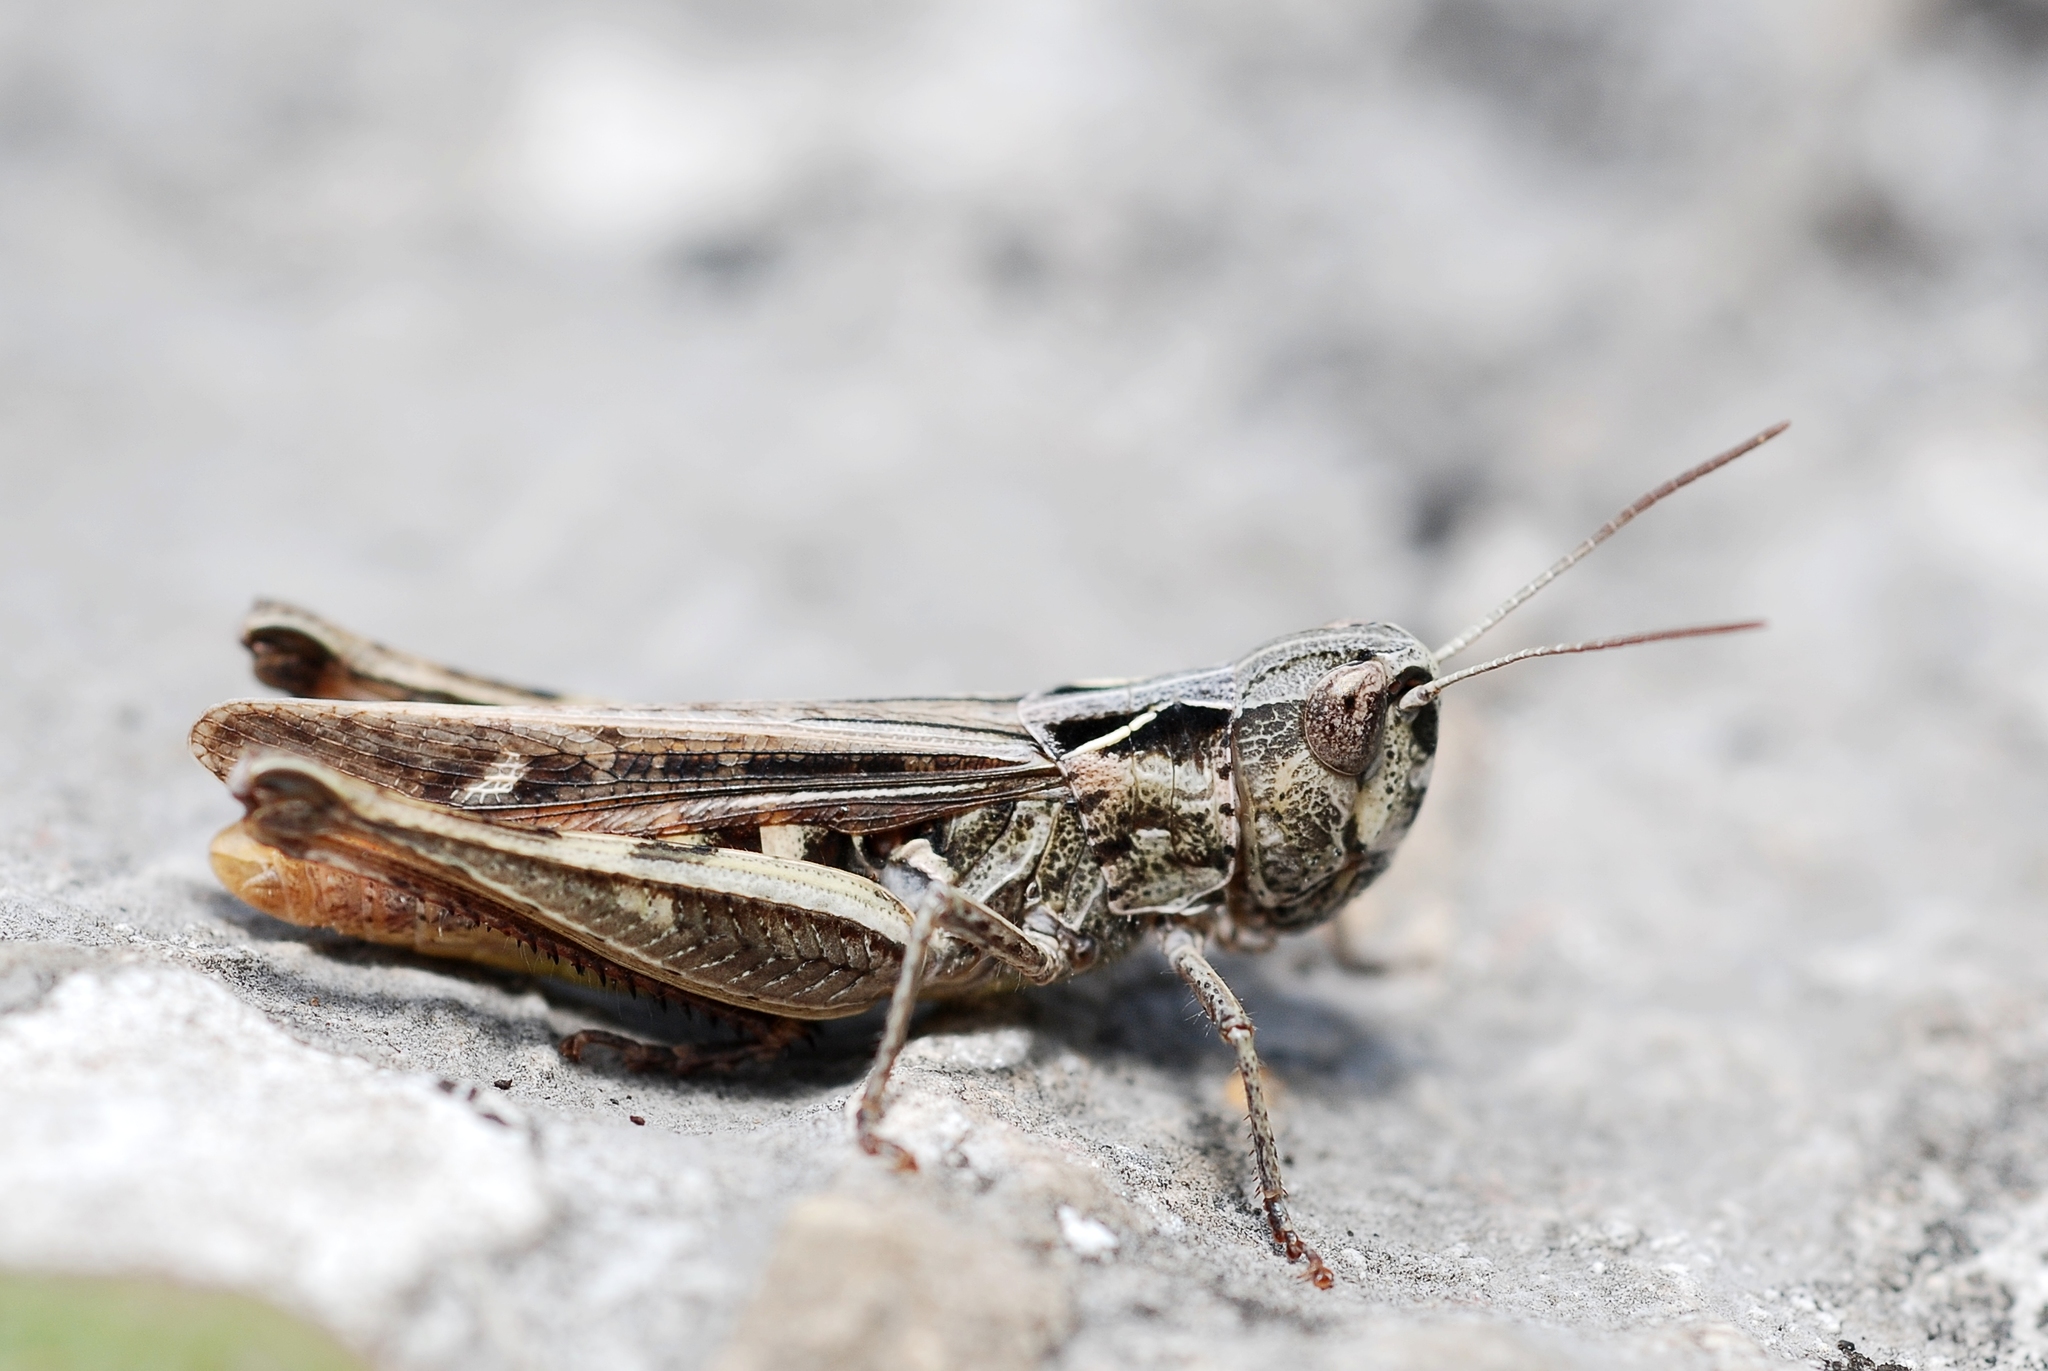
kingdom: Animalia
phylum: Arthropoda
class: Insecta
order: Orthoptera
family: Acrididae
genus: Chorthippus
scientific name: Chorthippus vagans
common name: Heath grasshopper
